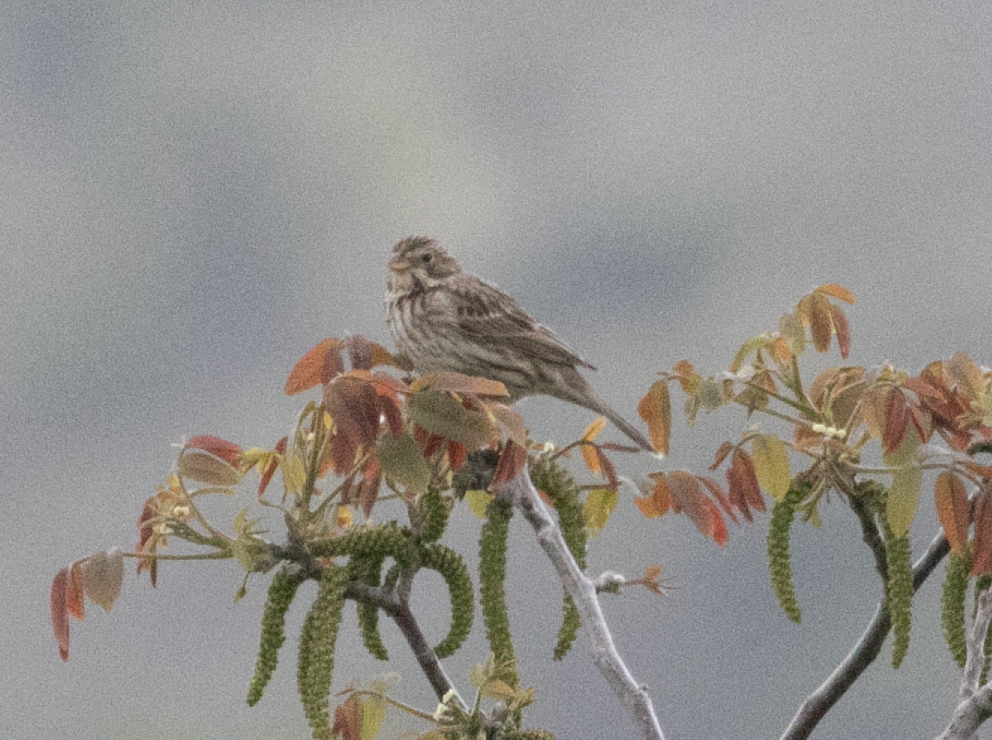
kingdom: Animalia
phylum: Chordata
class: Aves
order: Passeriformes
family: Emberizidae
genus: Emberiza
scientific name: Emberiza calandra
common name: Corn bunting
